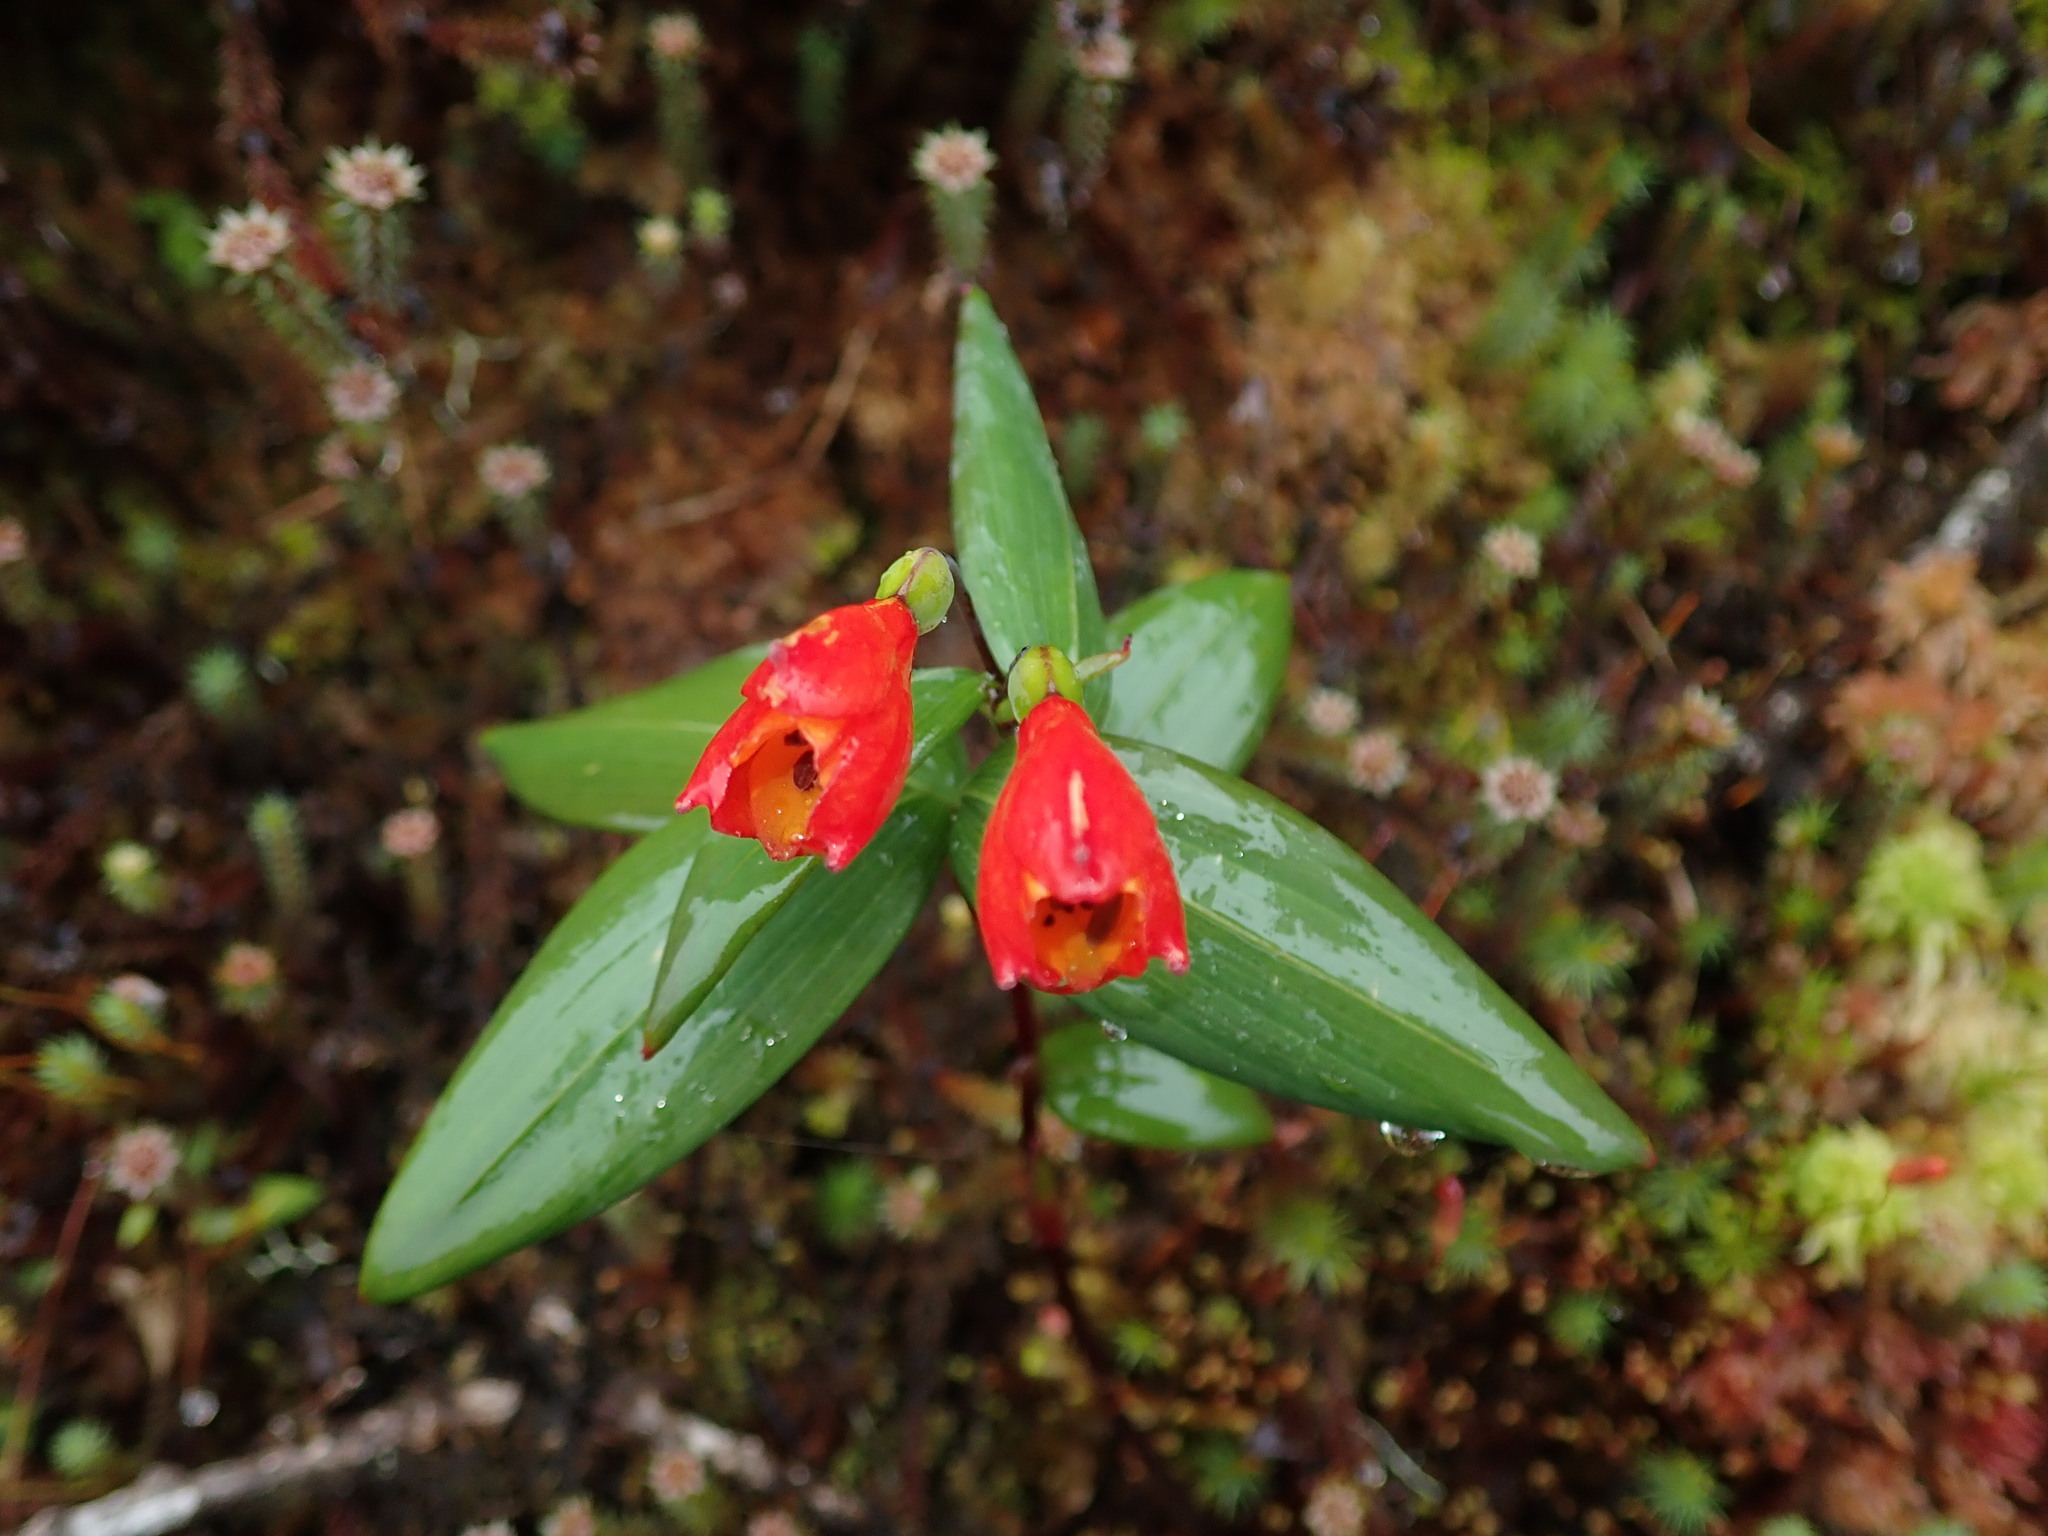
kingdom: Plantae
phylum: Tracheophyta
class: Liliopsida
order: Liliales
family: Alstroemeriaceae
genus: Bomarea
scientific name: Bomarea brevis
